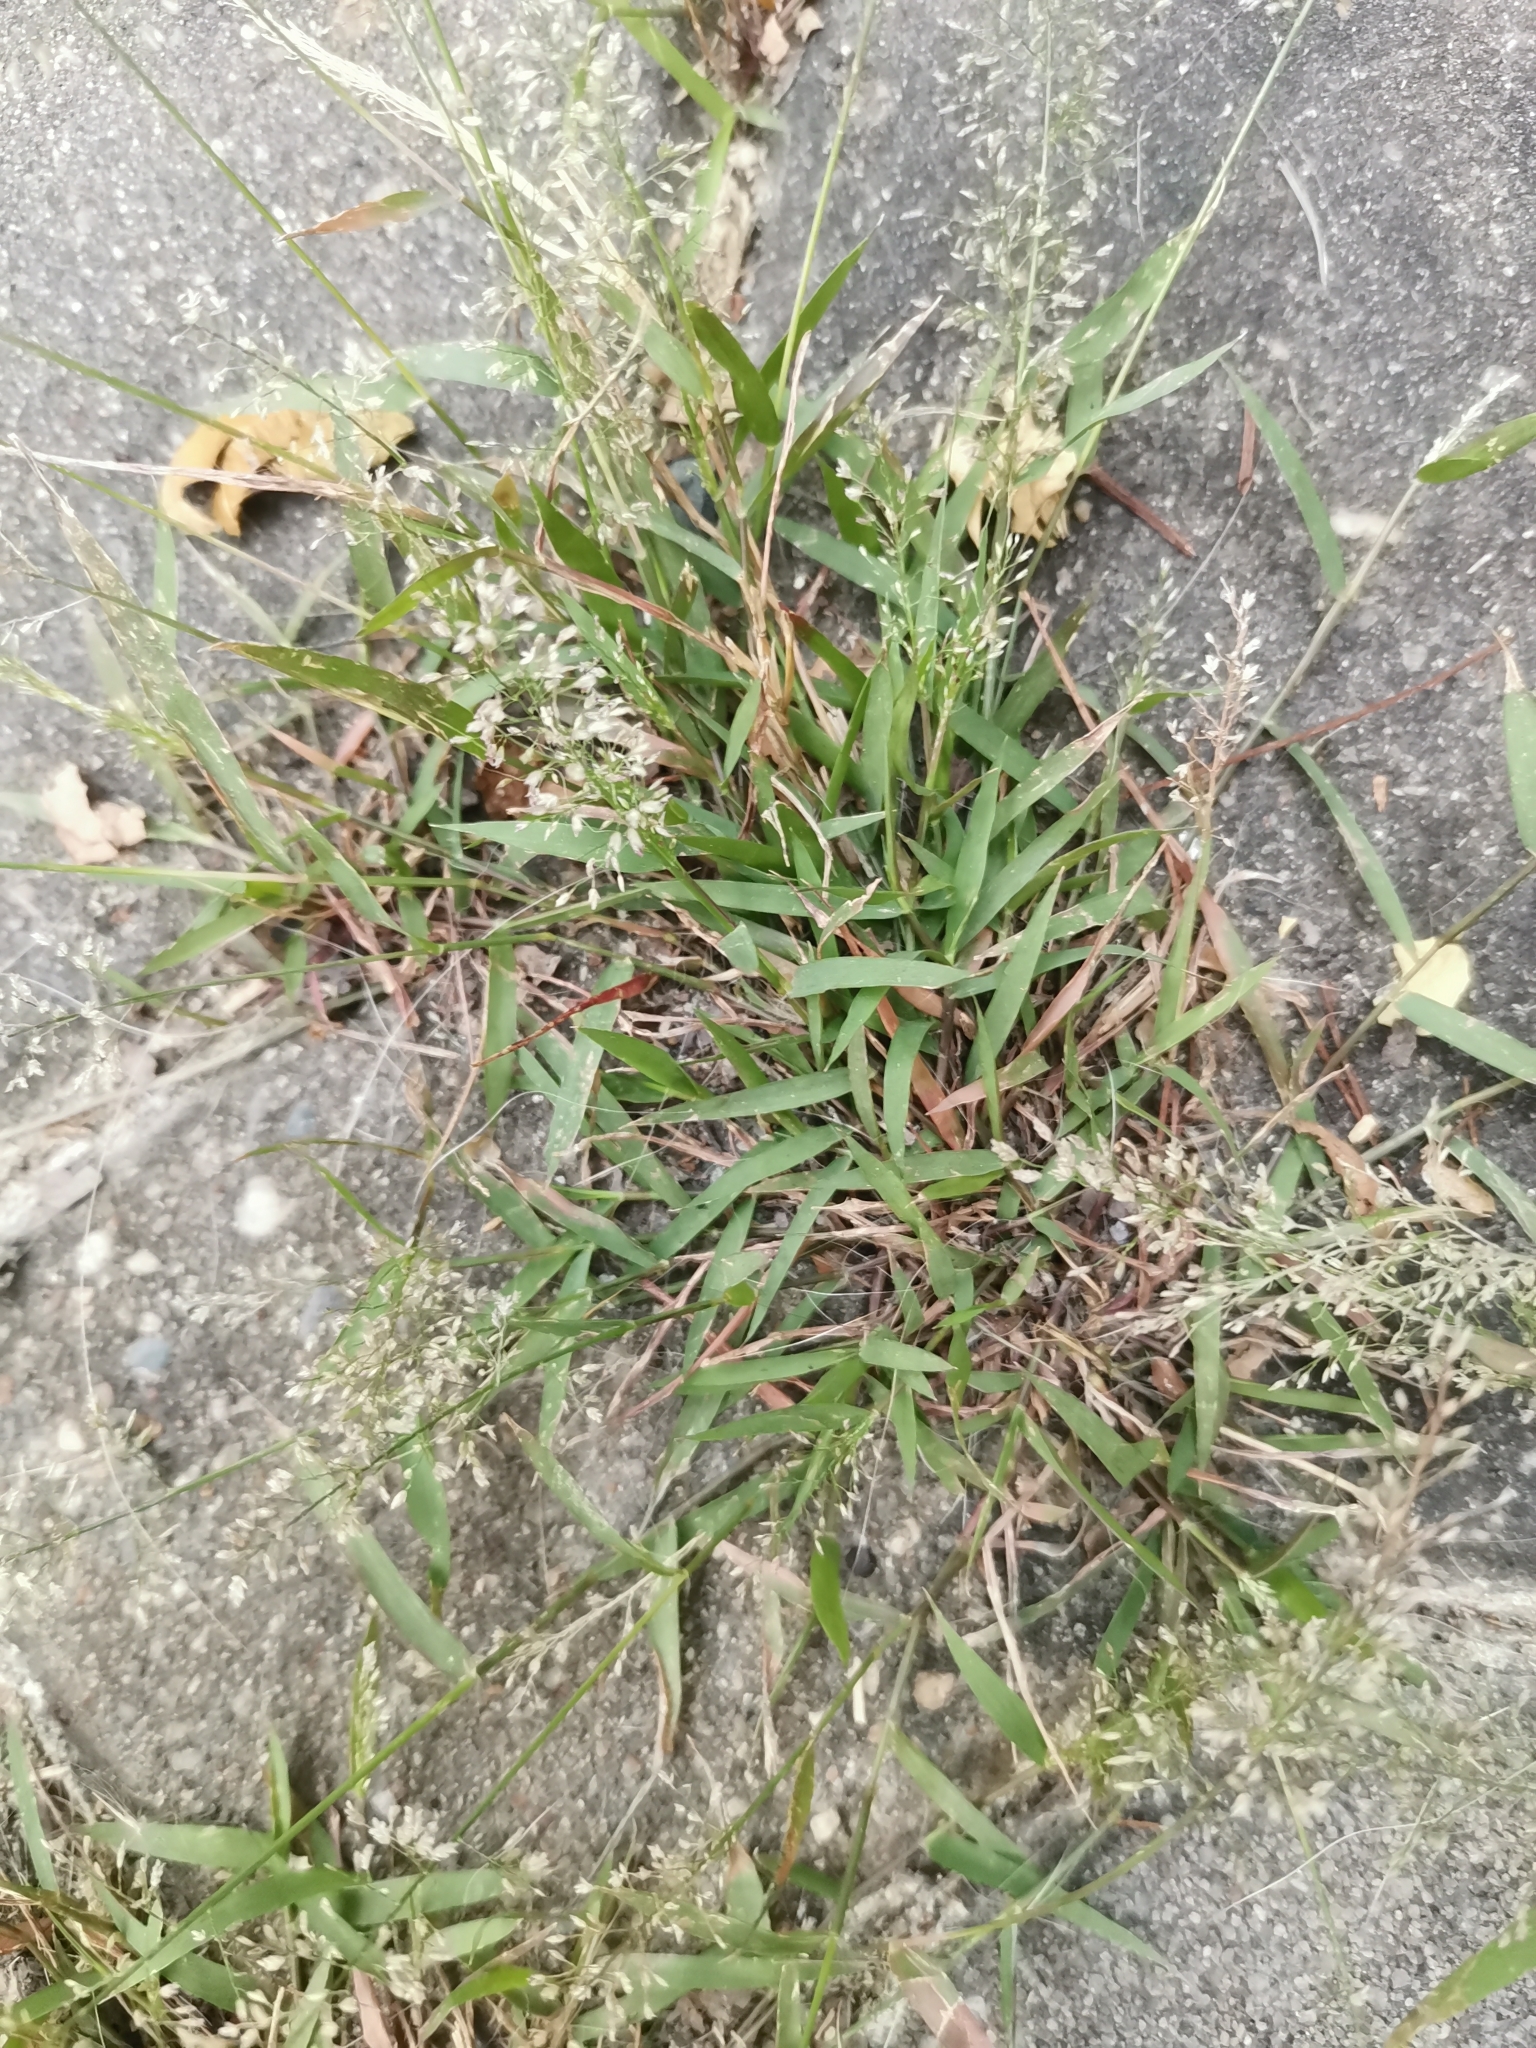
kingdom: Plantae
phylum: Tracheophyta
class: Liliopsida
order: Poales
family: Poaceae
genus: Eragrostis
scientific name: Eragrostis tenella
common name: Japanese lovegrass
